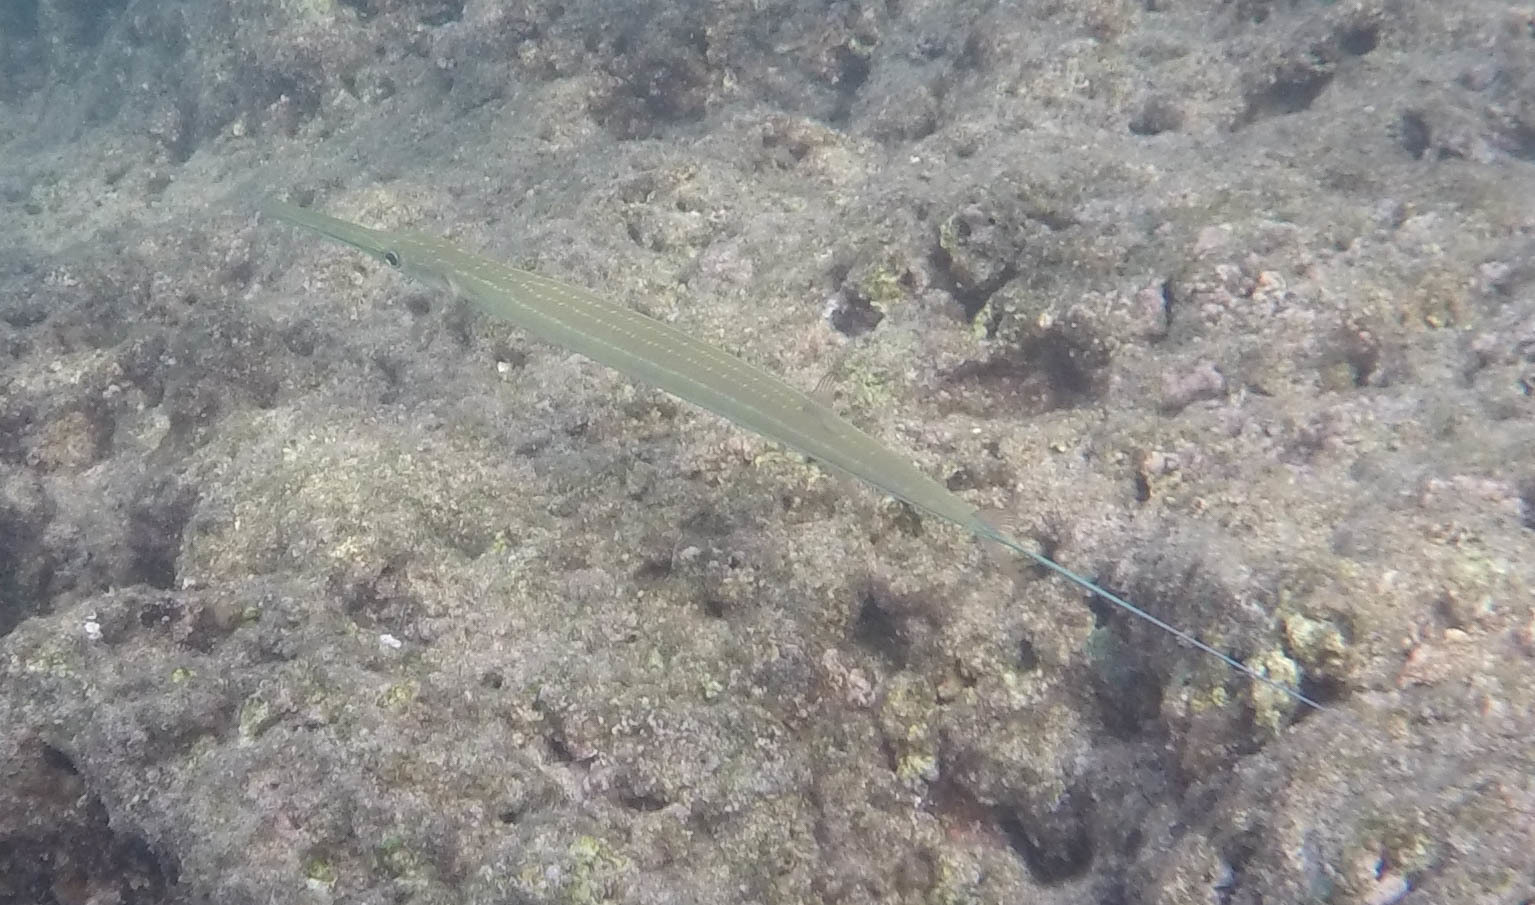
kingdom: Animalia
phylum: Chordata
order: Syngnathiformes
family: Fistulariidae
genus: Fistularia
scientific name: Fistularia commersonii
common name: Bluespotted cornetfish
